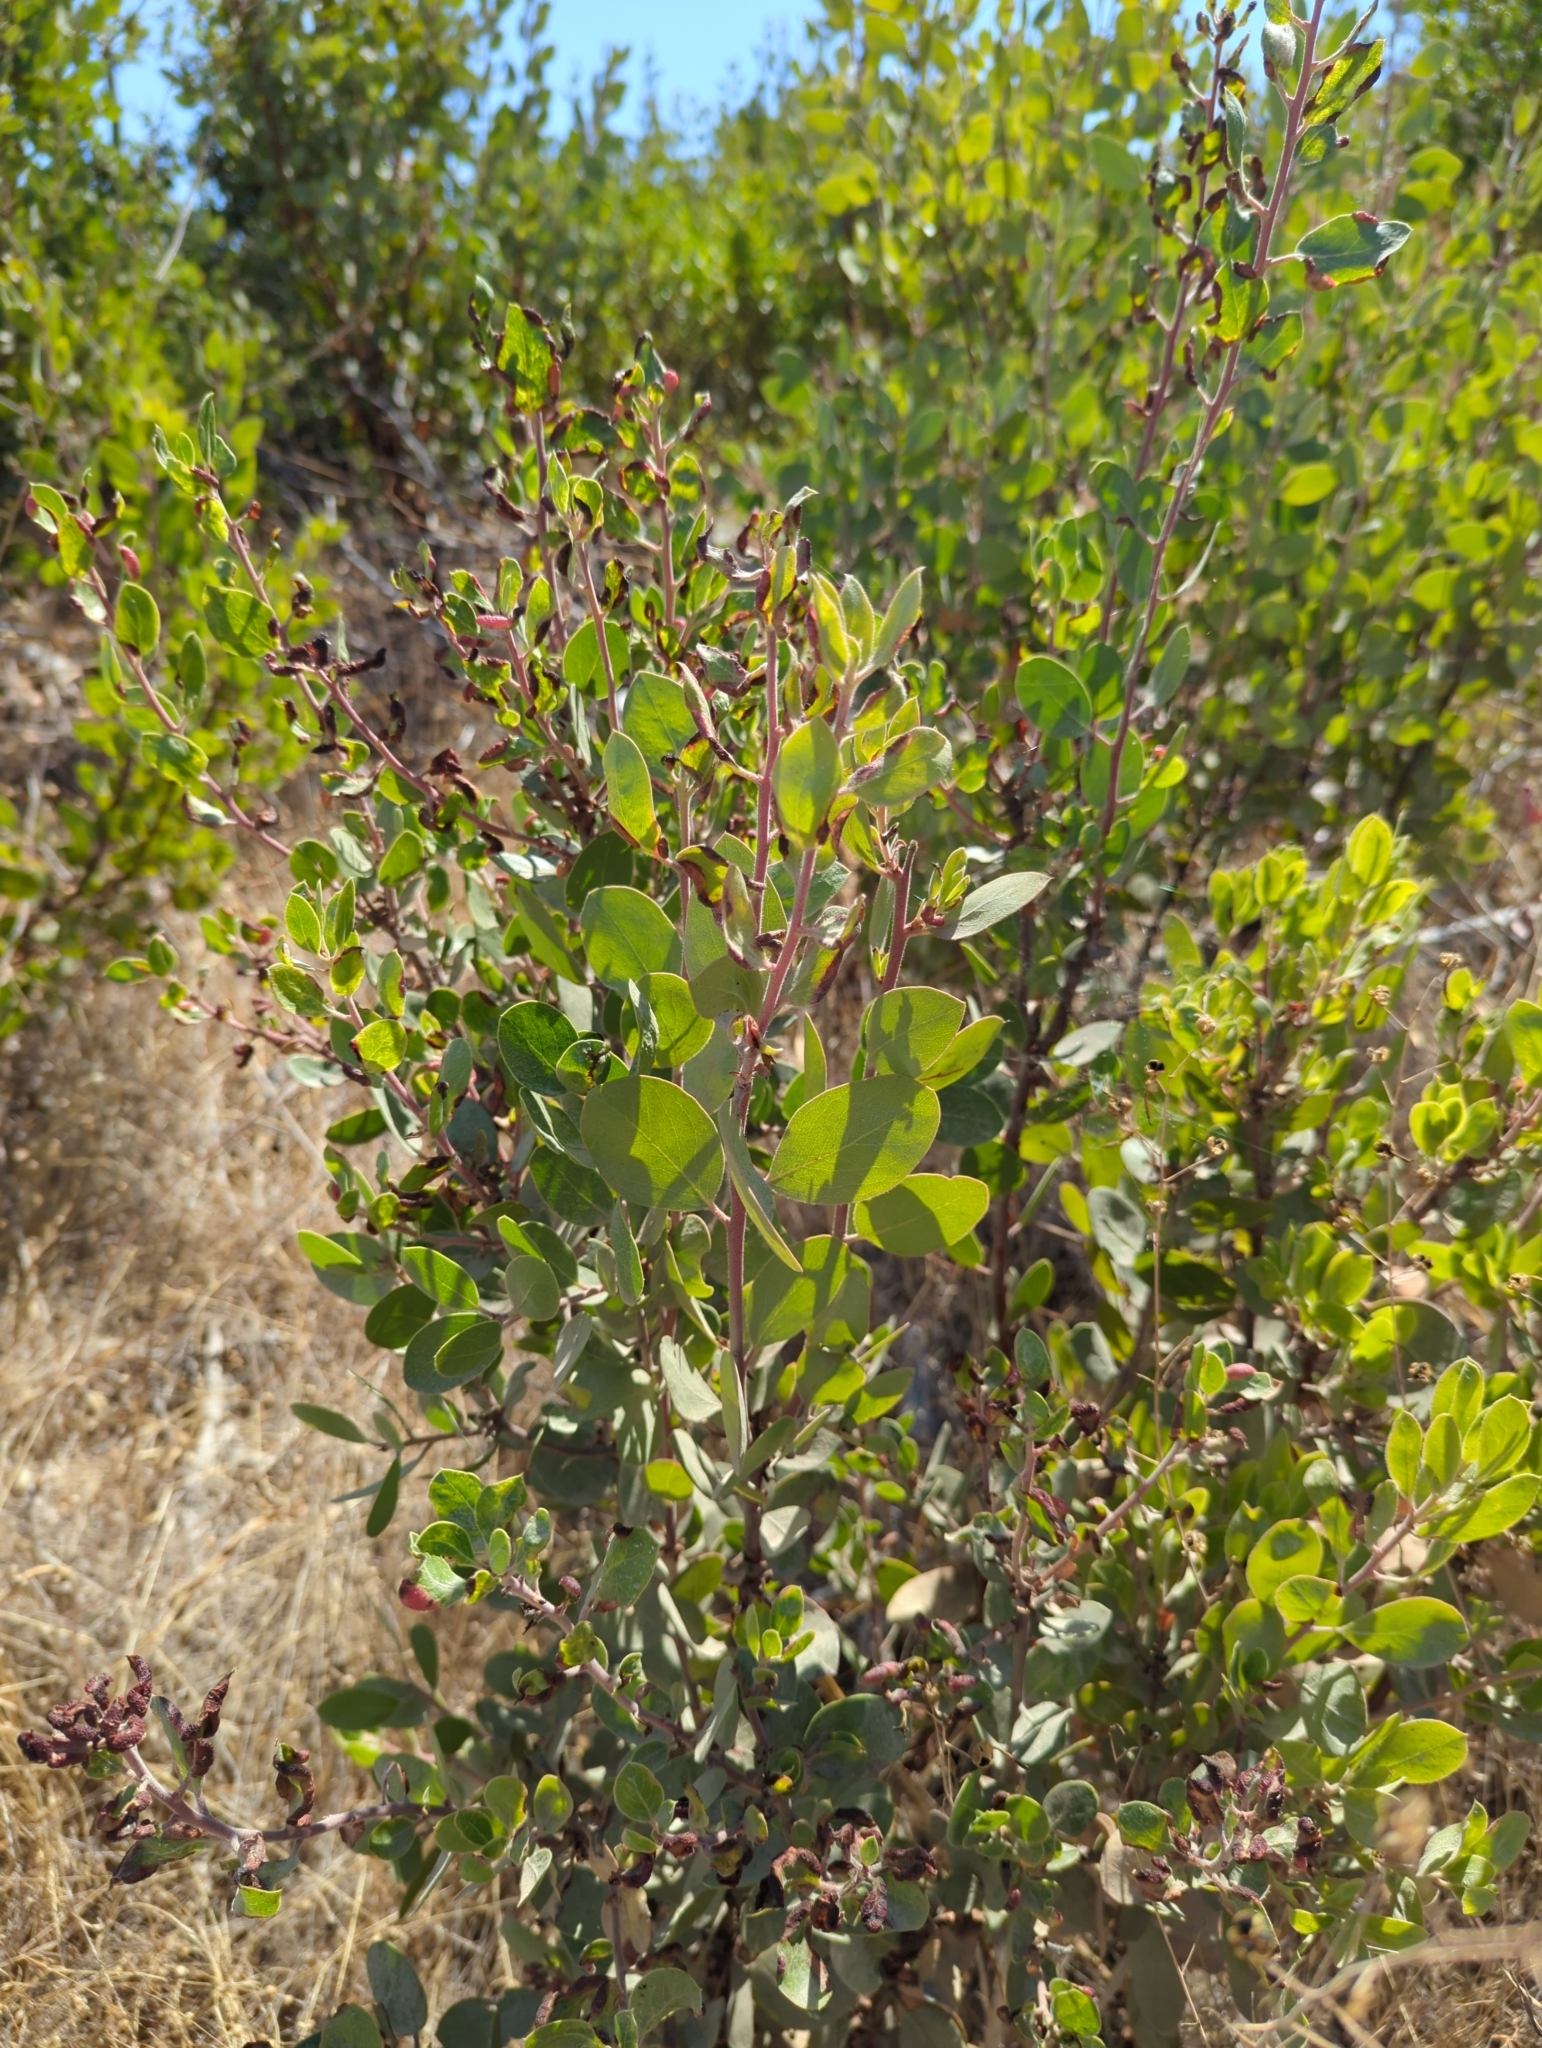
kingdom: Animalia
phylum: Arthropoda
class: Insecta
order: Hemiptera
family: Aphididae
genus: Tamalia
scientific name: Tamalia coweni
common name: Manzanita leafgall aphid
